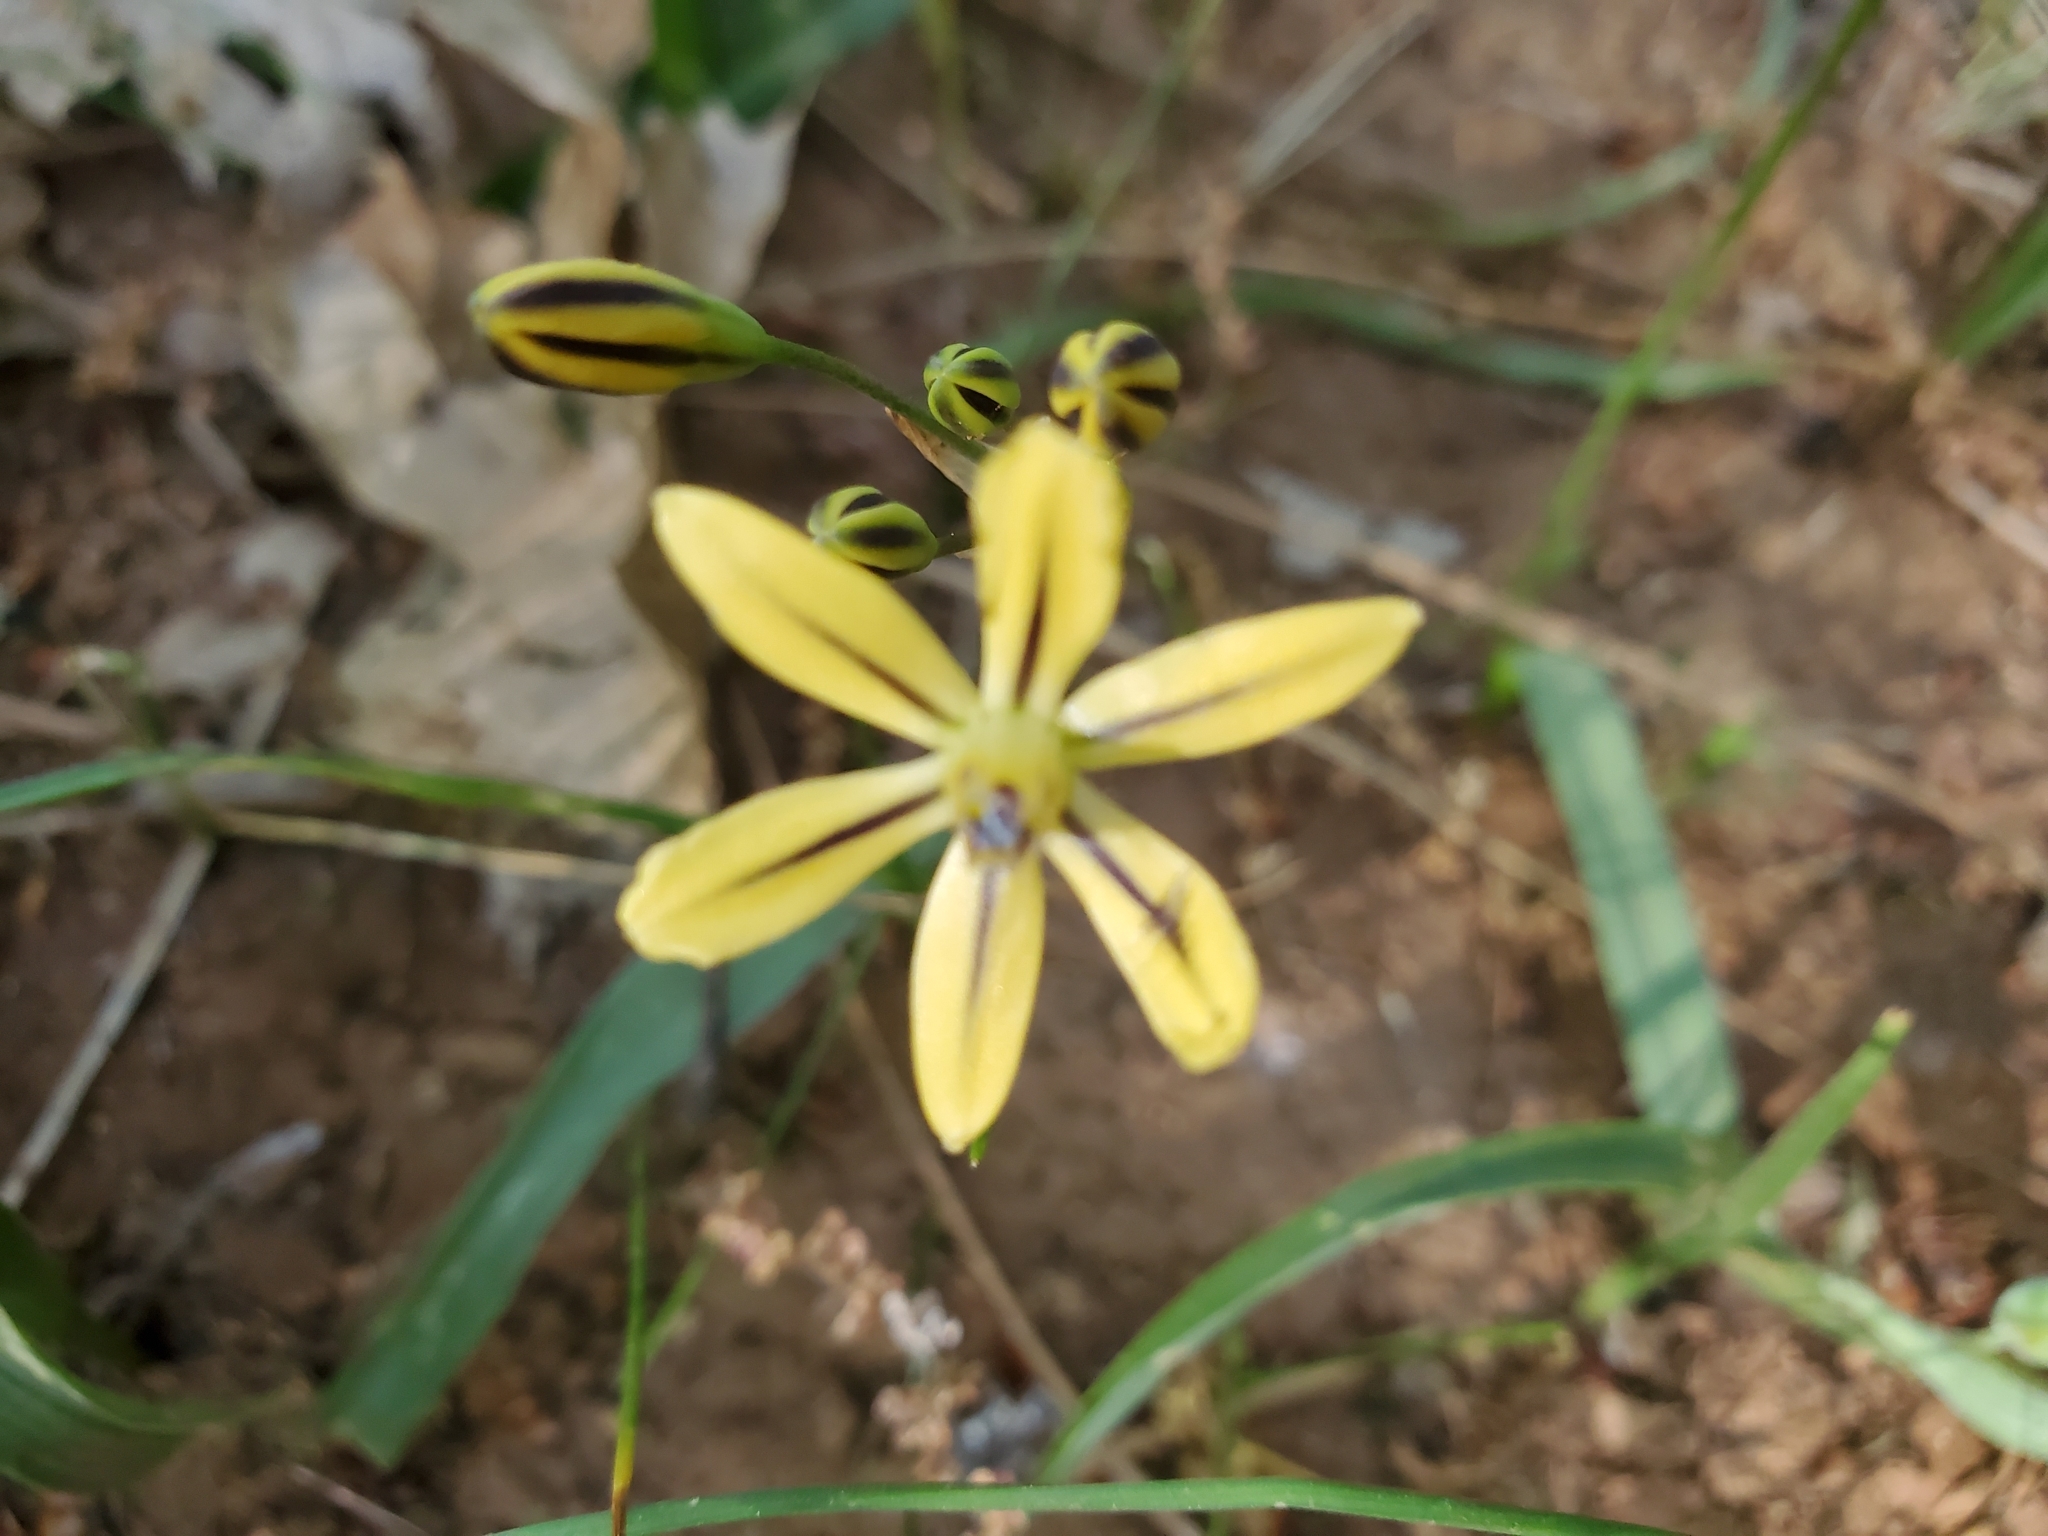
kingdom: Plantae
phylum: Tracheophyta
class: Liliopsida
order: Asparagales
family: Asparagaceae
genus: Triteleia
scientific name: Triteleia ixioides
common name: Yellow-brodiaea
